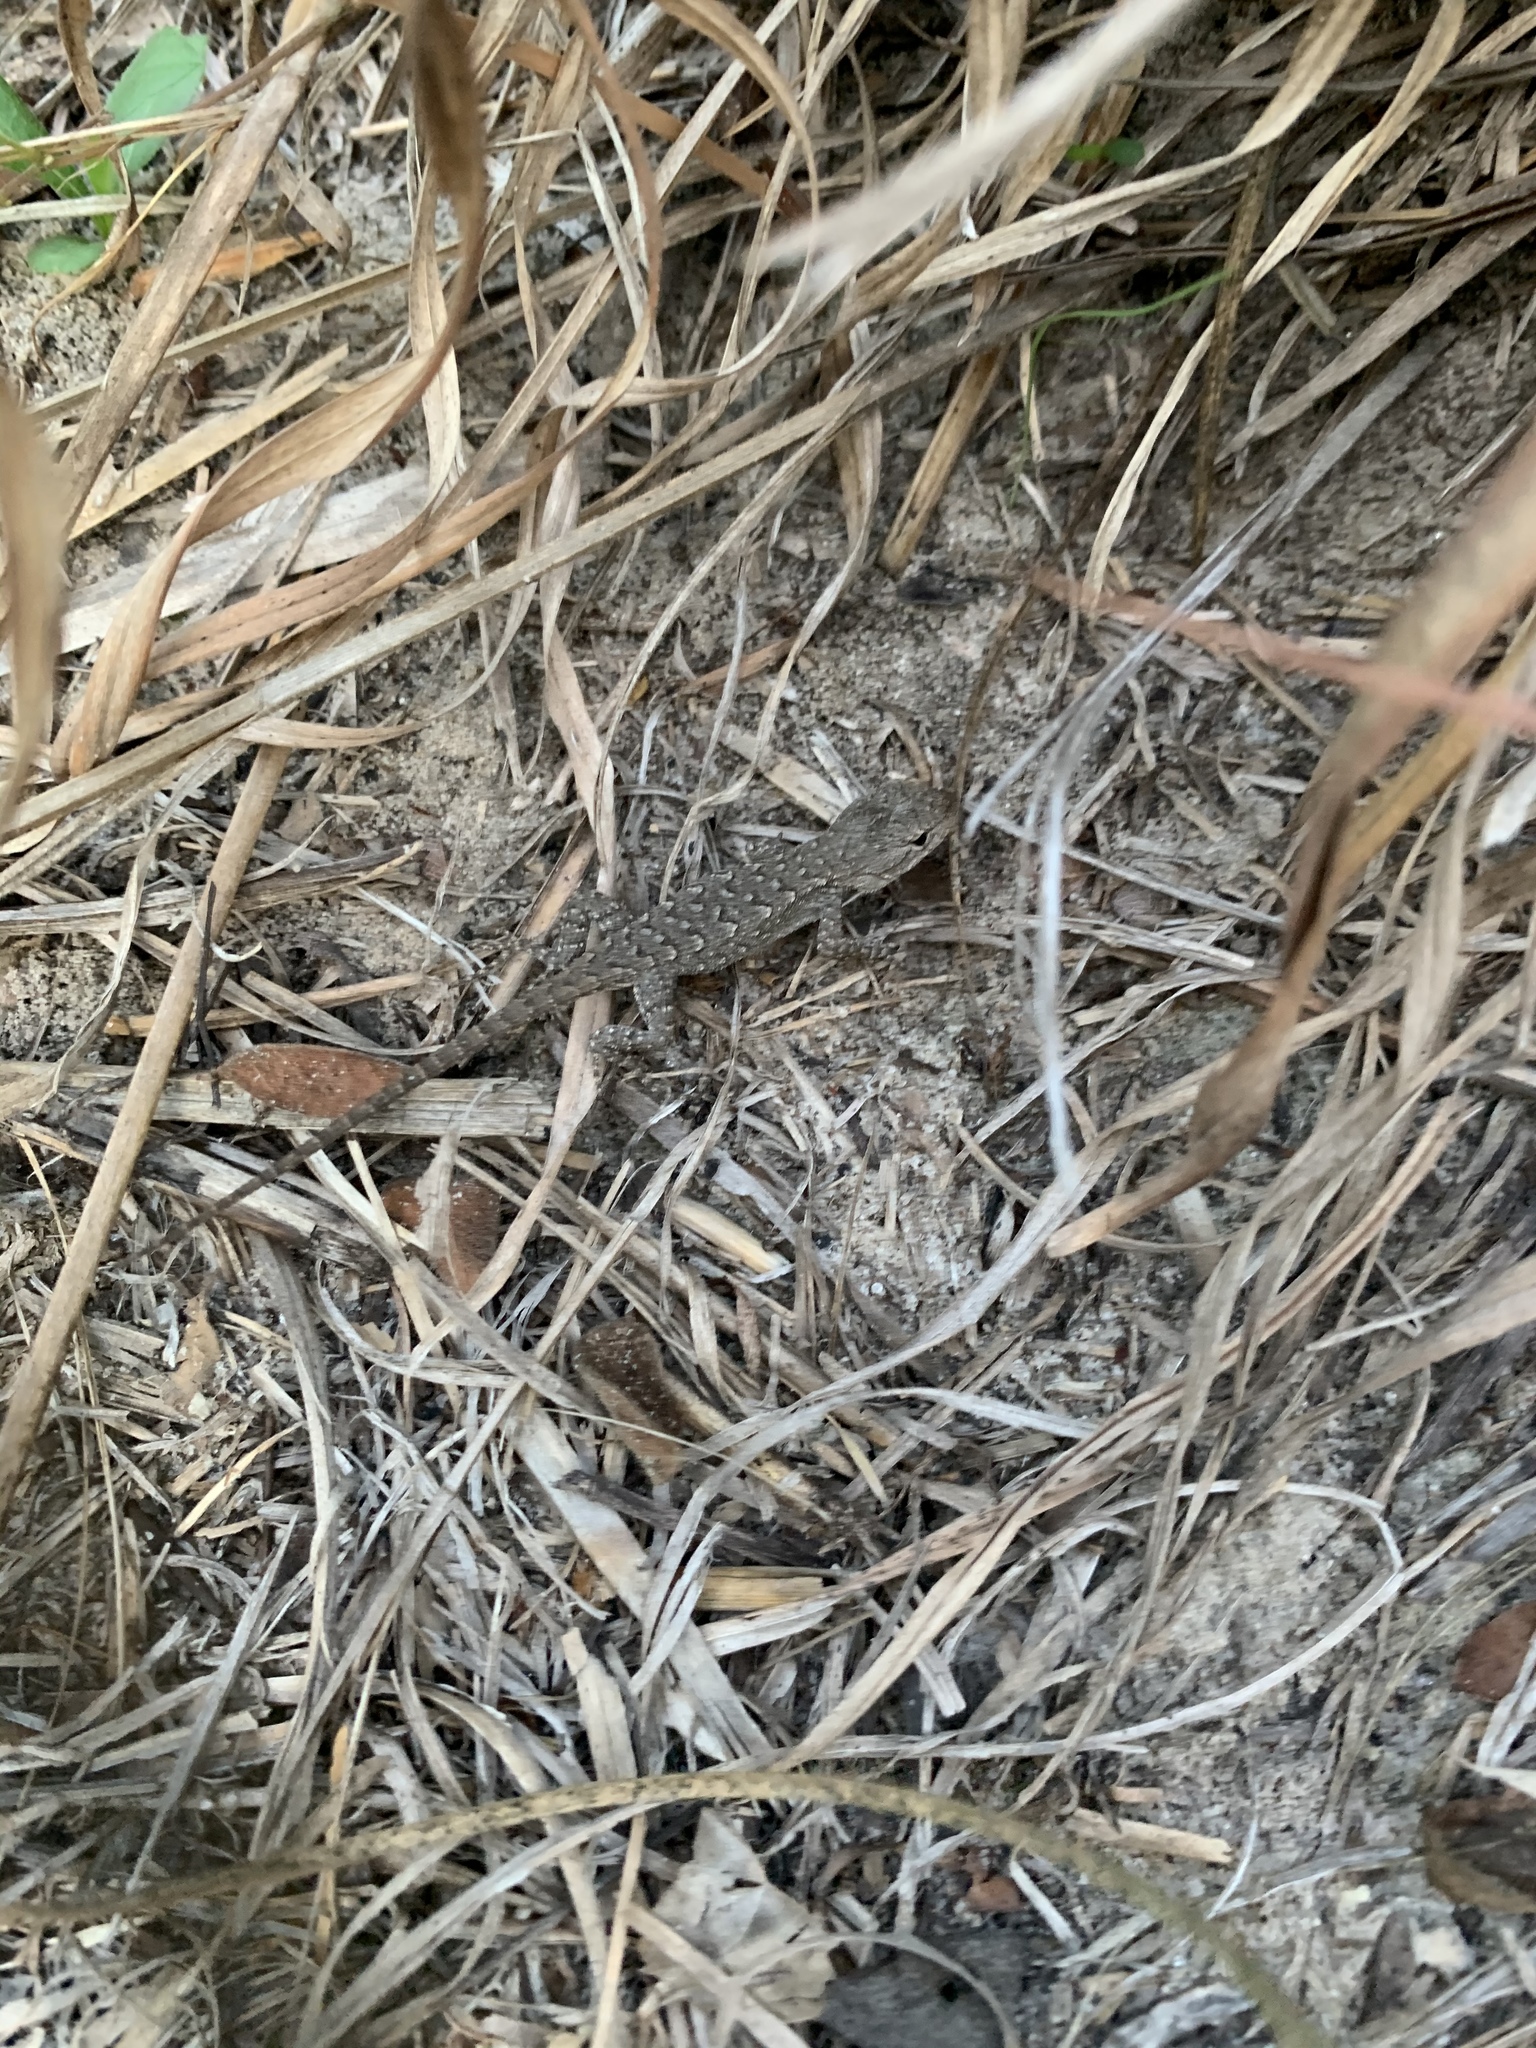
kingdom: Animalia
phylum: Chordata
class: Squamata
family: Phrynosomatidae
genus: Sceloporus
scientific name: Sceloporus consobrinus
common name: Southern prairie lizard
